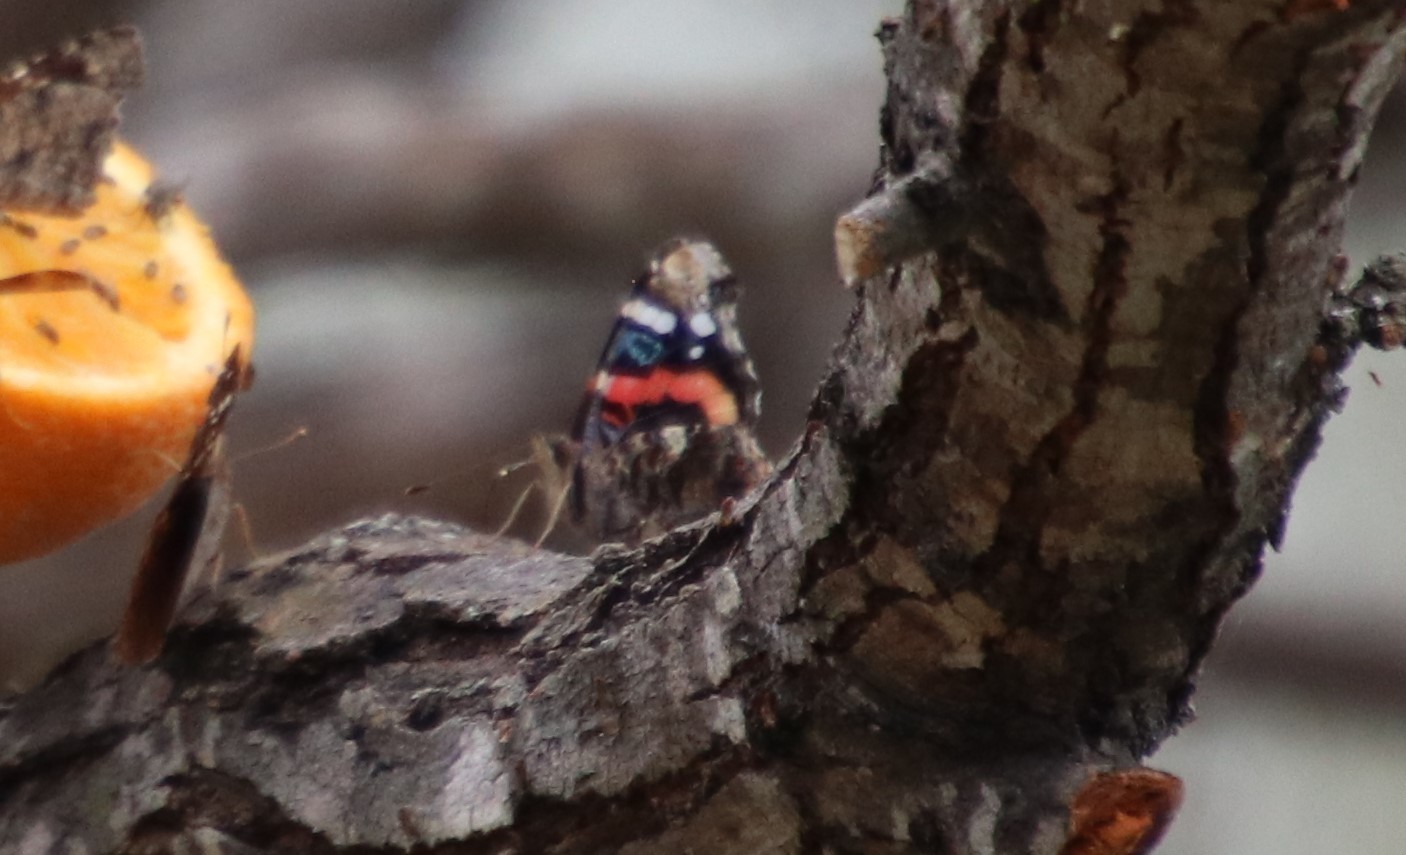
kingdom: Animalia
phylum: Arthropoda
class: Insecta
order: Lepidoptera
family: Nymphalidae
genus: Vanessa
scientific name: Vanessa atalanta
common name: Red admiral
